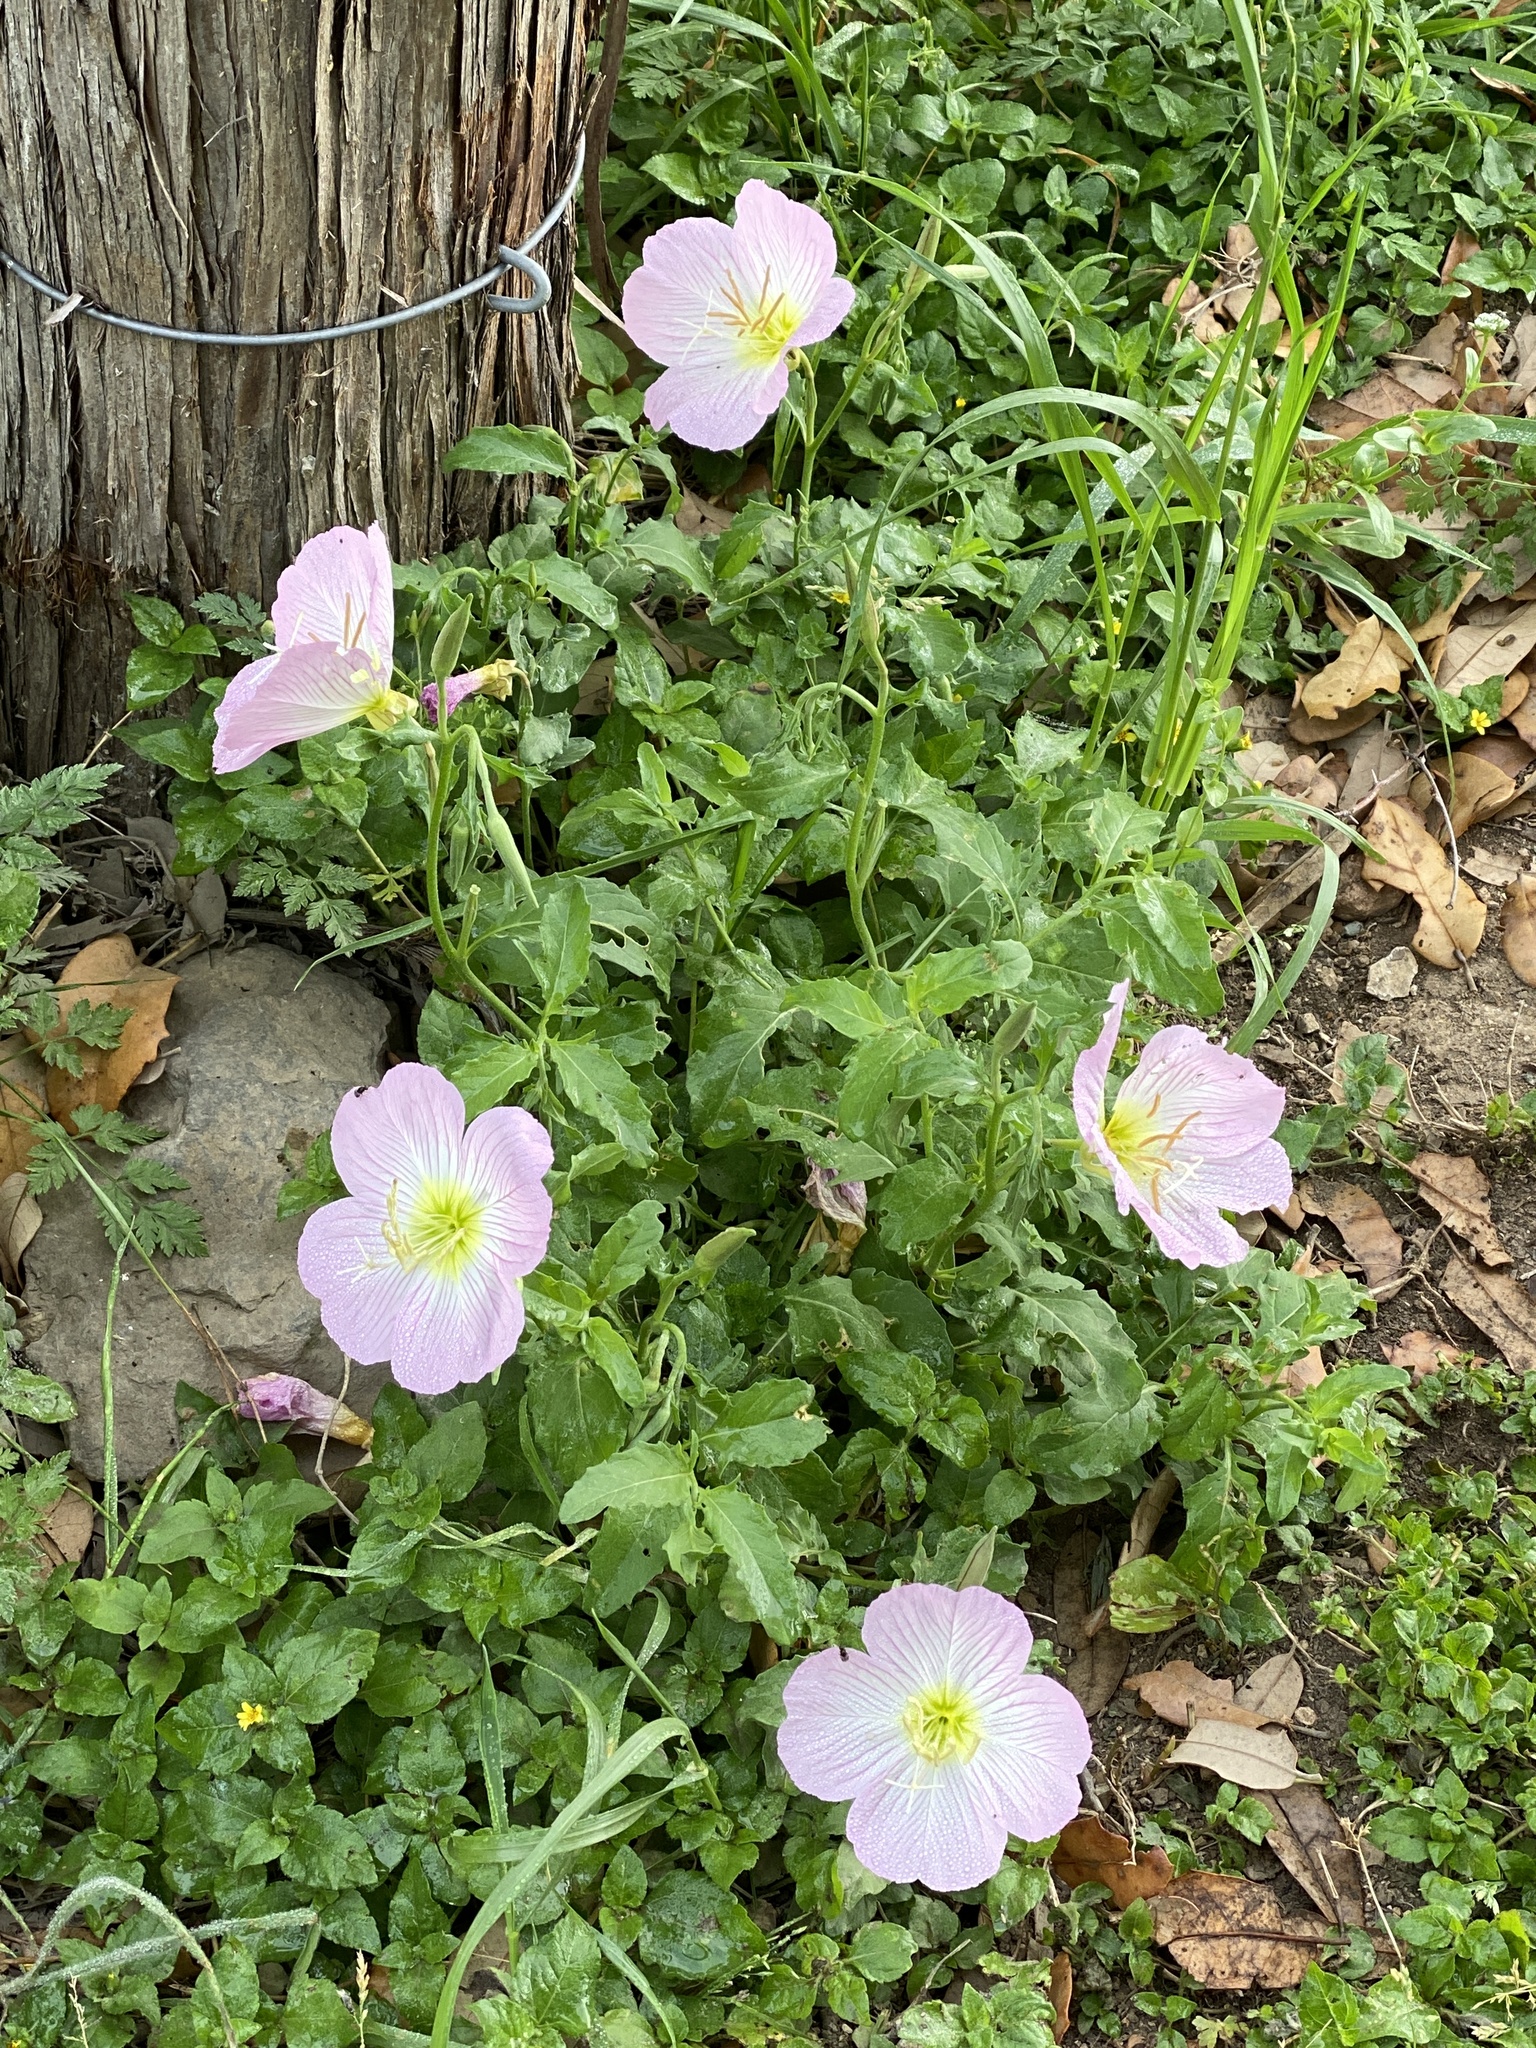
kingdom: Plantae
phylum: Tracheophyta
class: Magnoliopsida
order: Myrtales
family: Onagraceae
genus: Oenothera
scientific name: Oenothera speciosa
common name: White evening-primrose
